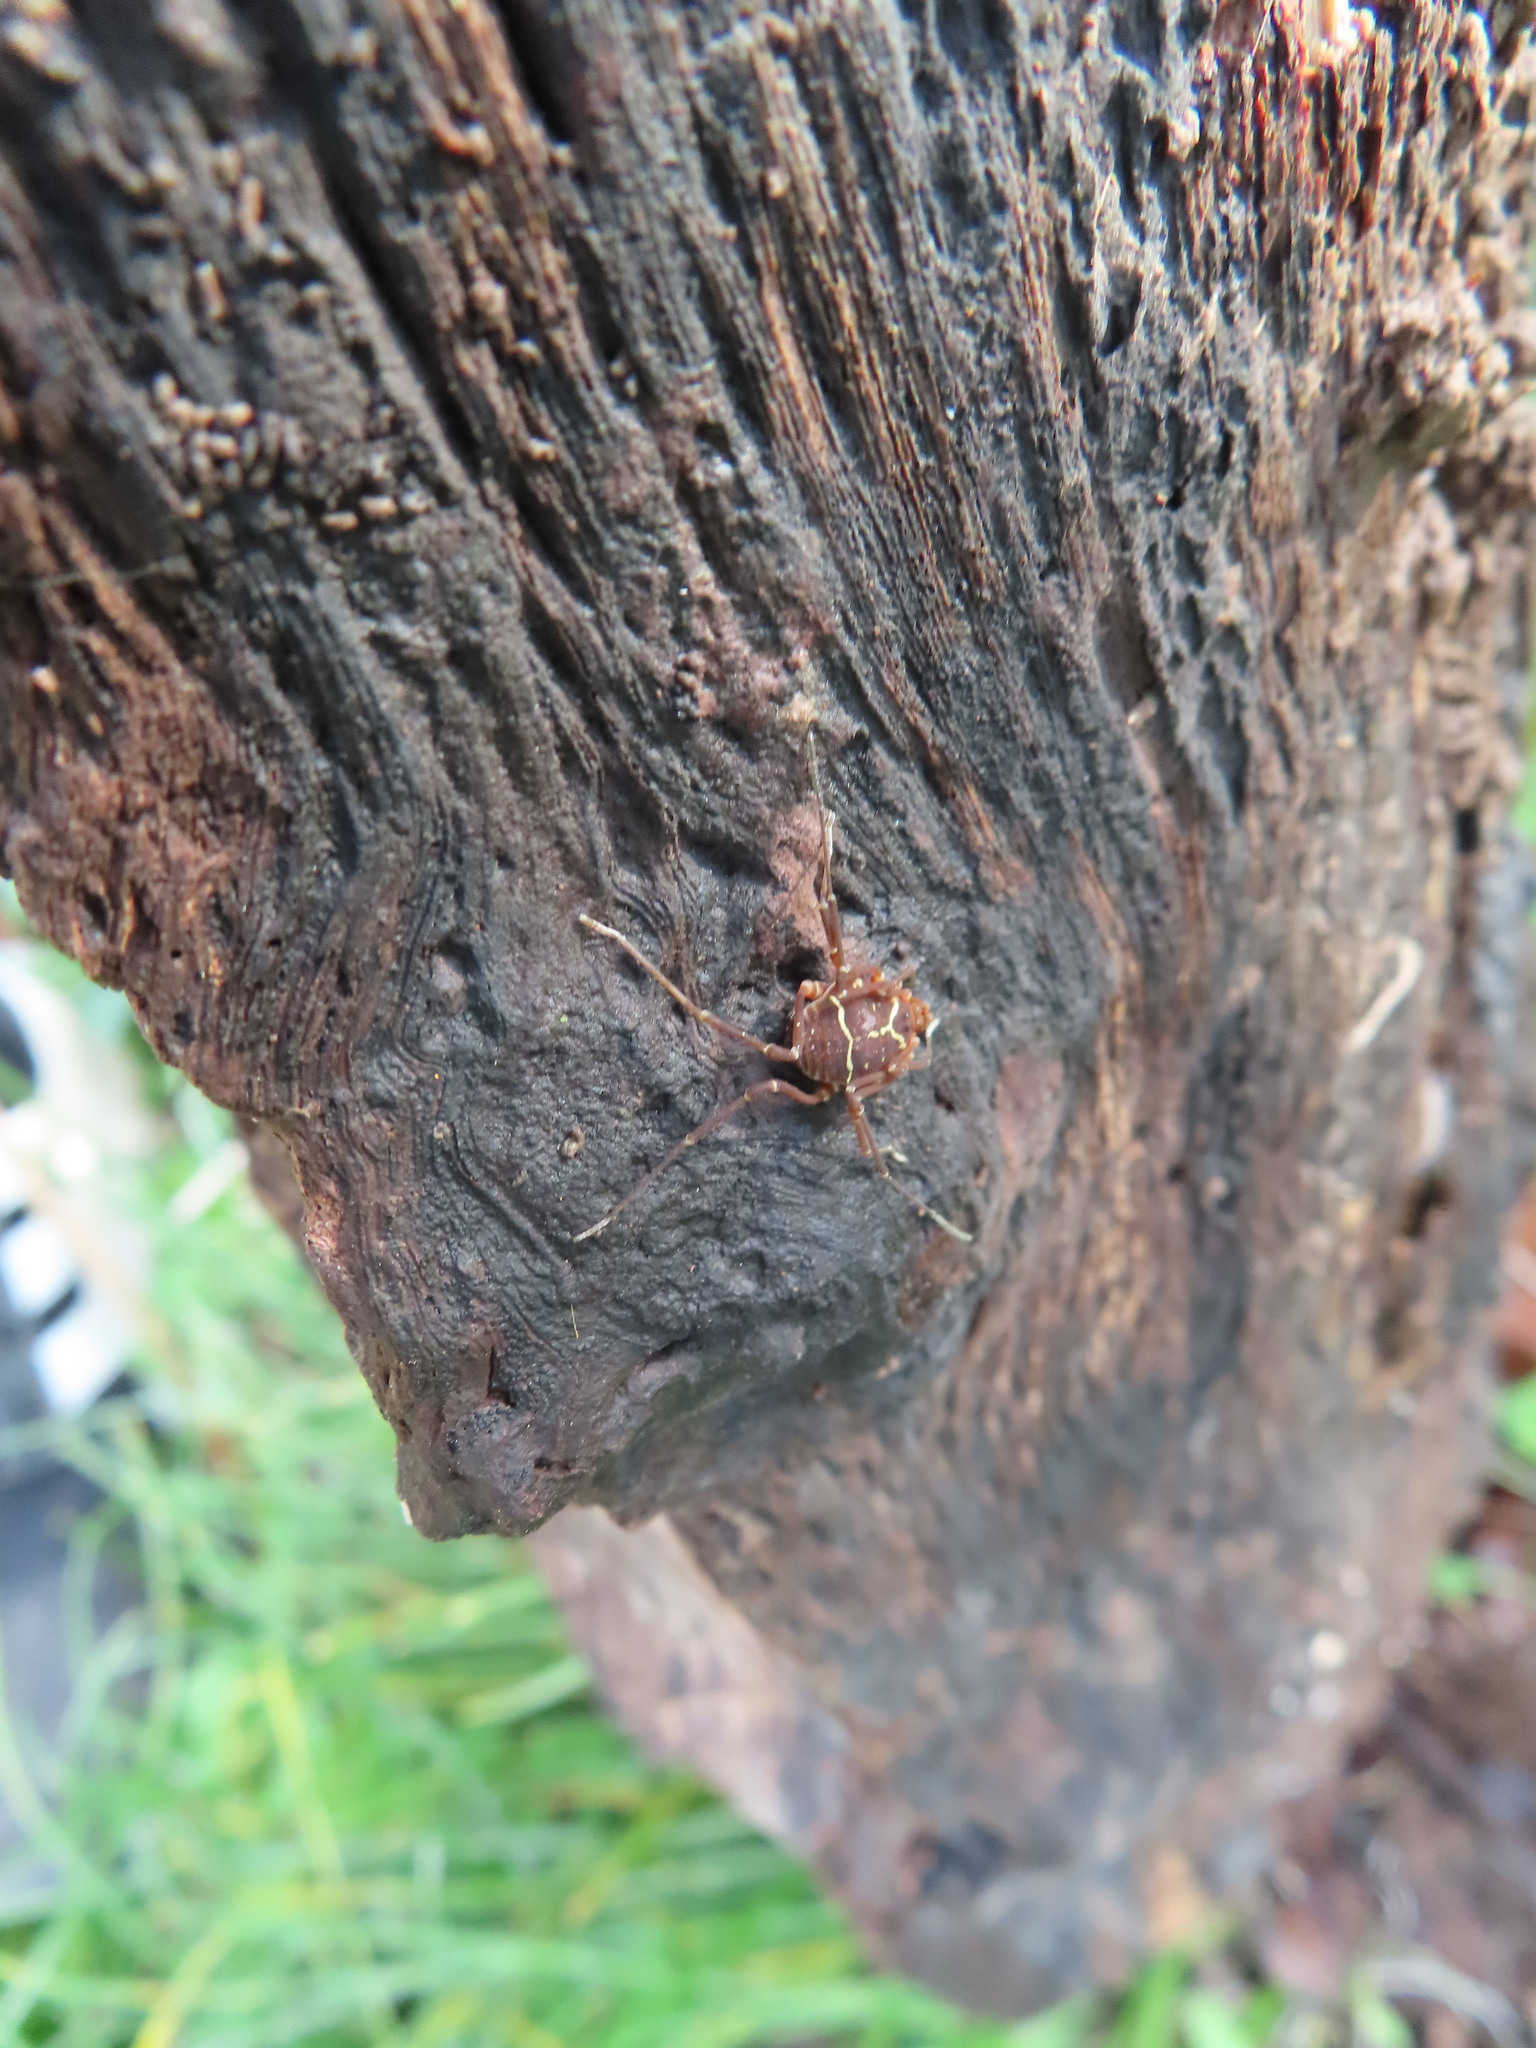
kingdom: Animalia
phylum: Arthropoda
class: Arachnida
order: Opiliones
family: Cosmetidae
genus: Libitioides
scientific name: Libitioides sayi
